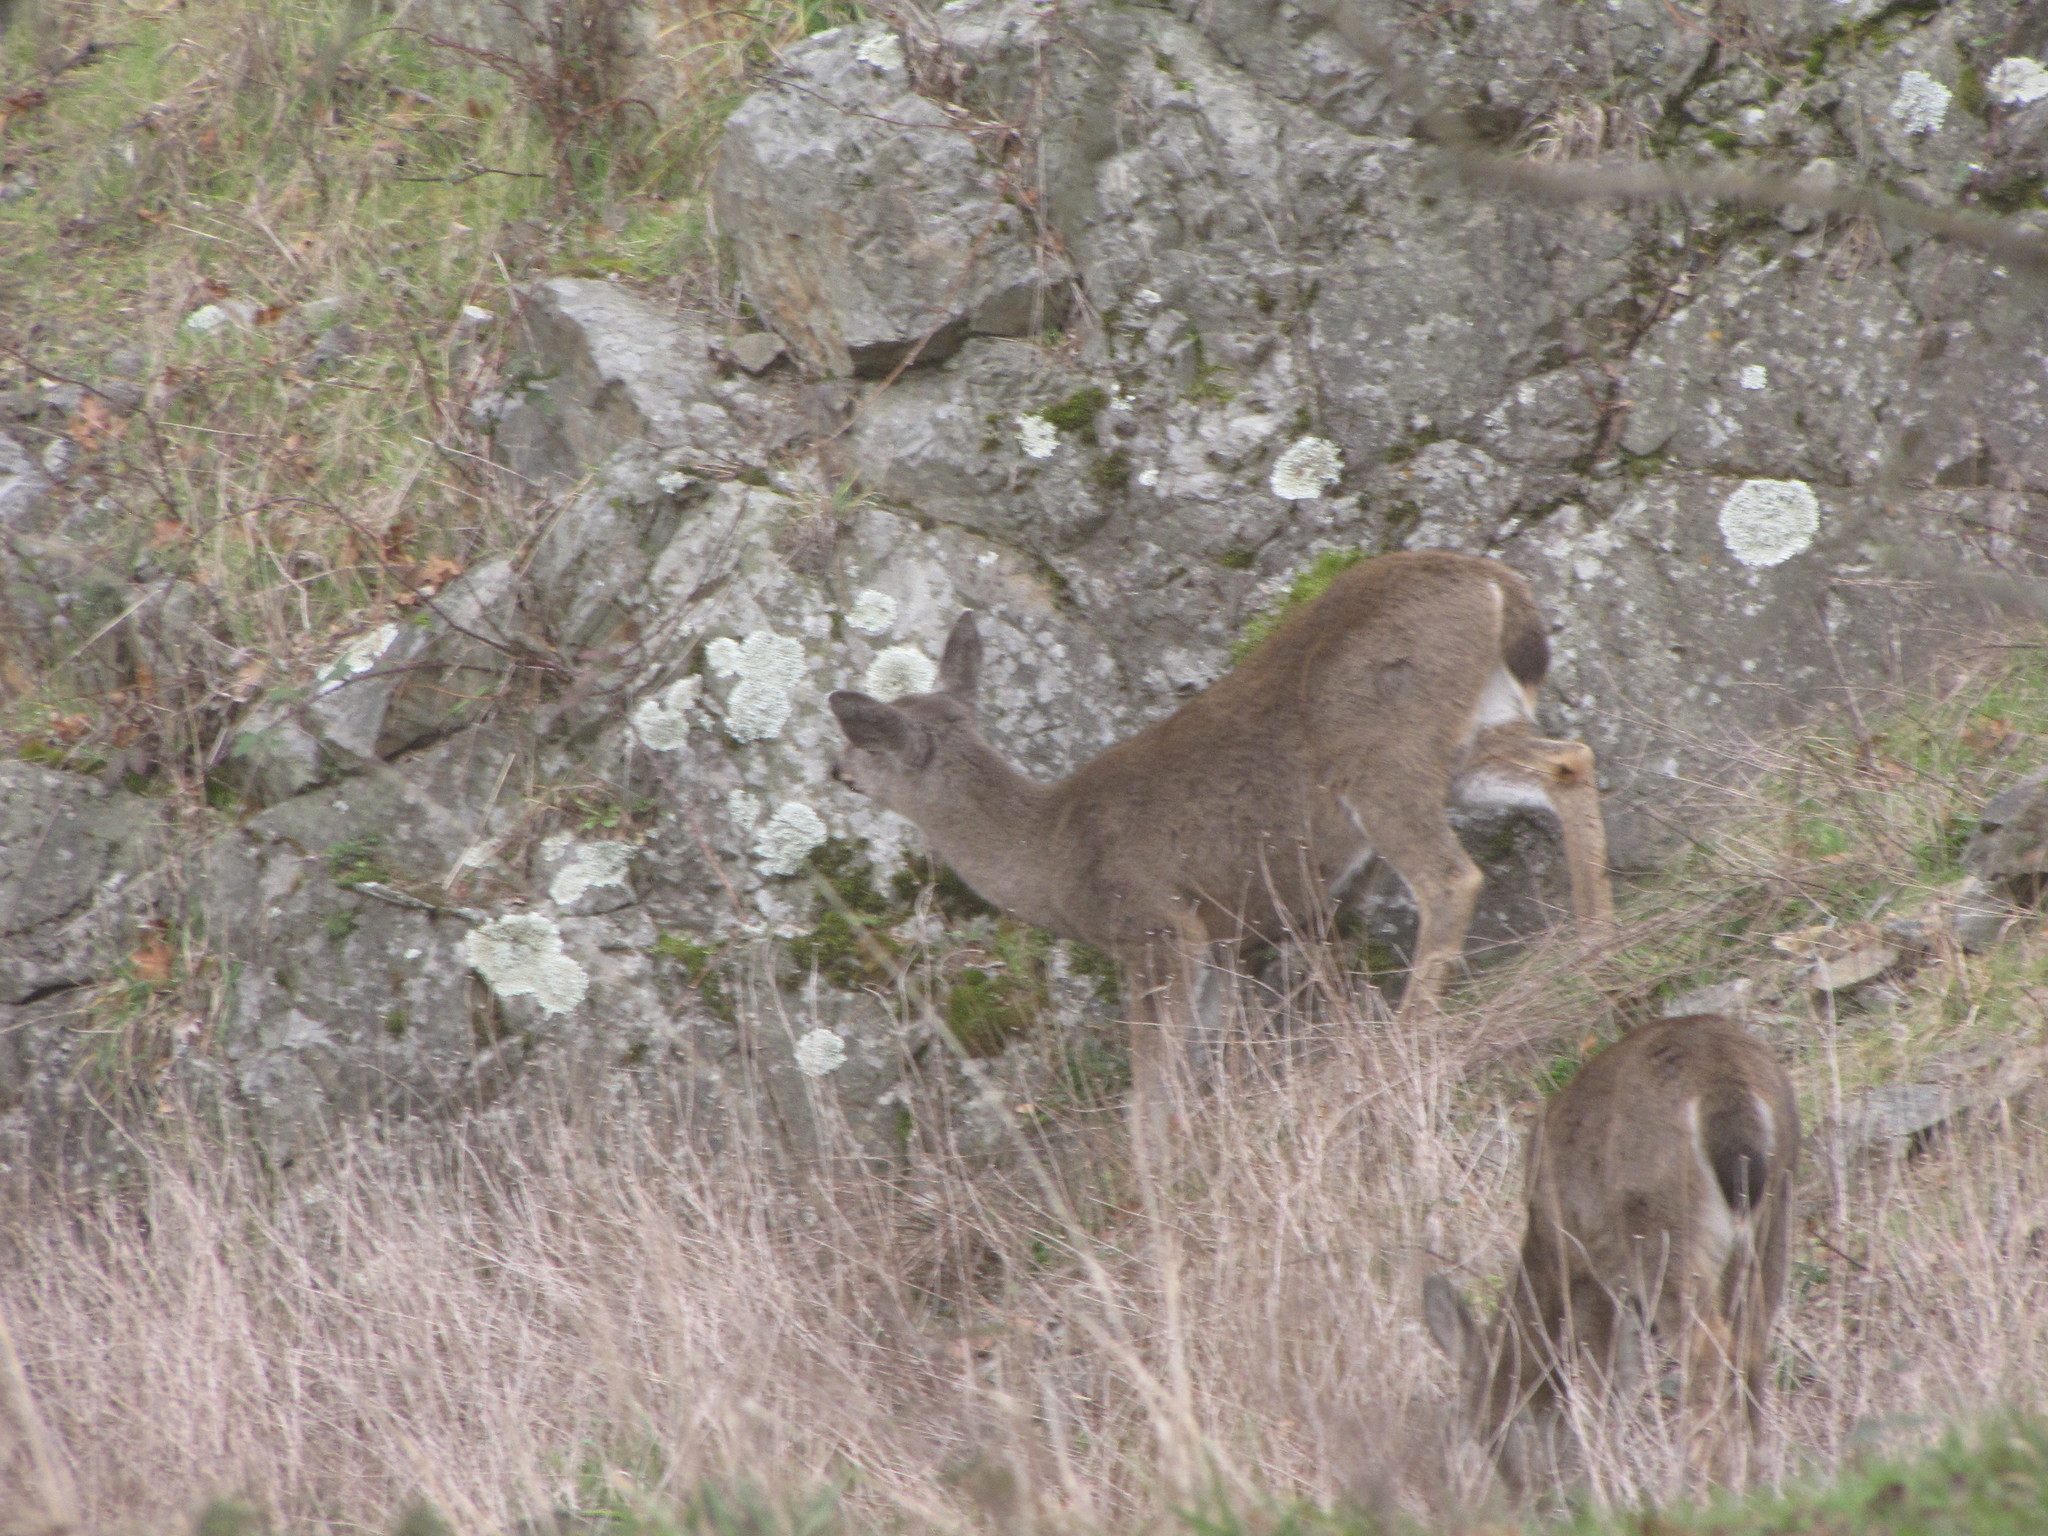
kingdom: Animalia
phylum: Chordata
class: Mammalia
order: Artiodactyla
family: Cervidae
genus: Odocoileus
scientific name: Odocoileus hemionus
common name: Mule deer
